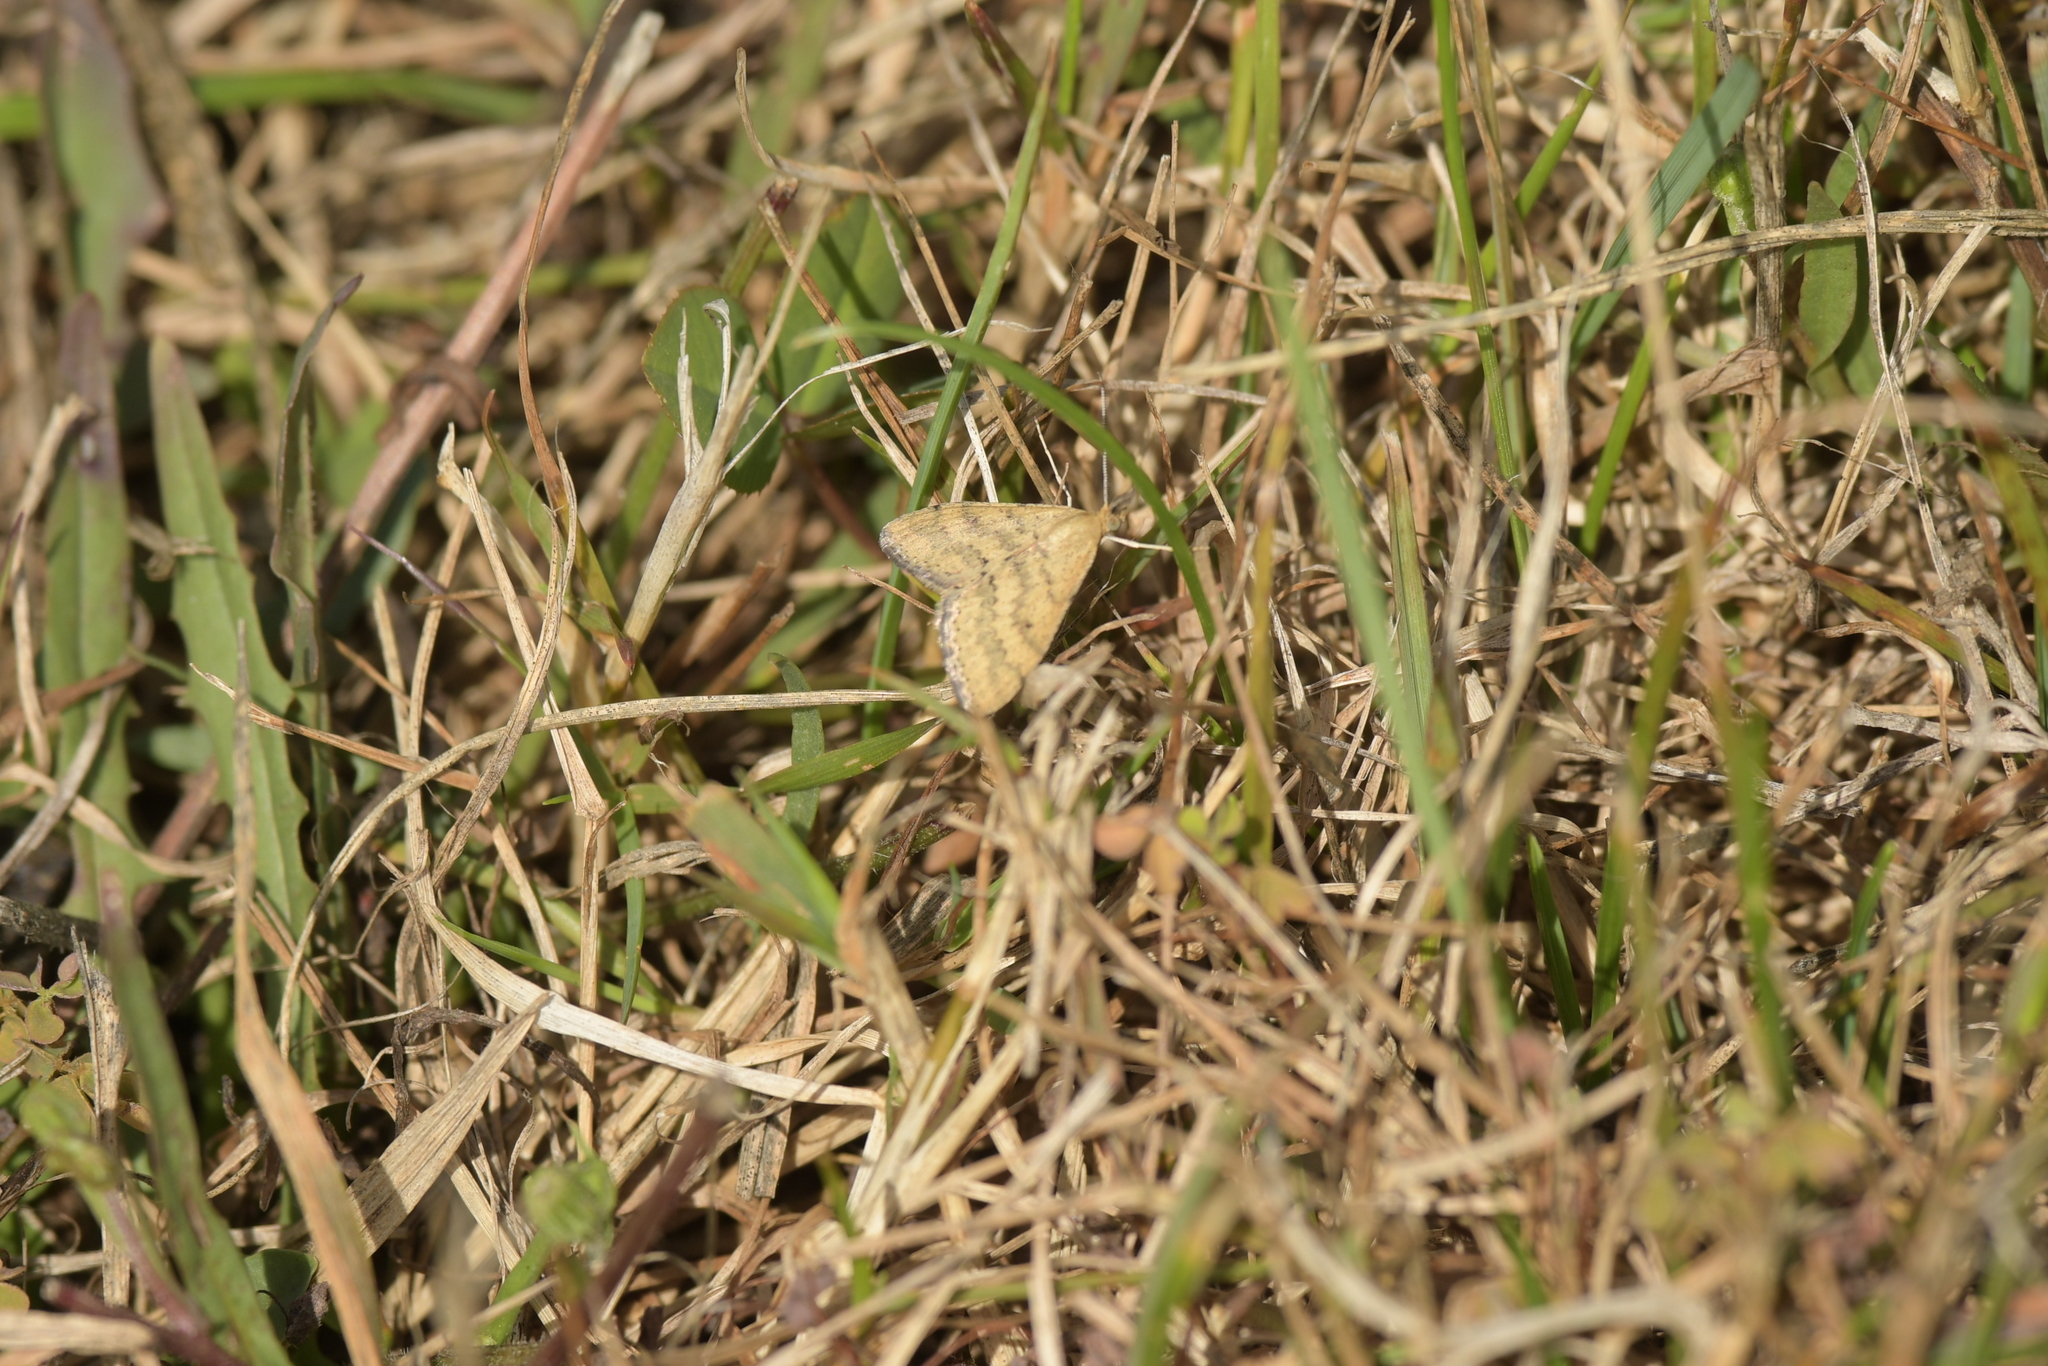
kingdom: Animalia
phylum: Arthropoda
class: Insecta
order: Lepidoptera
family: Geometridae
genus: Scopula
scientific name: Scopula rubraria
